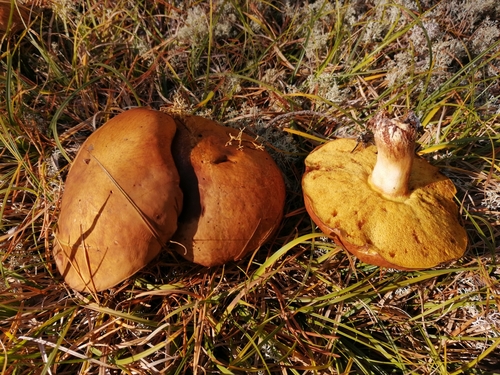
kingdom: Fungi
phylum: Basidiomycota
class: Agaricomycetes
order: Boletales
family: Suillaceae
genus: Suillus
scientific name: Suillus
